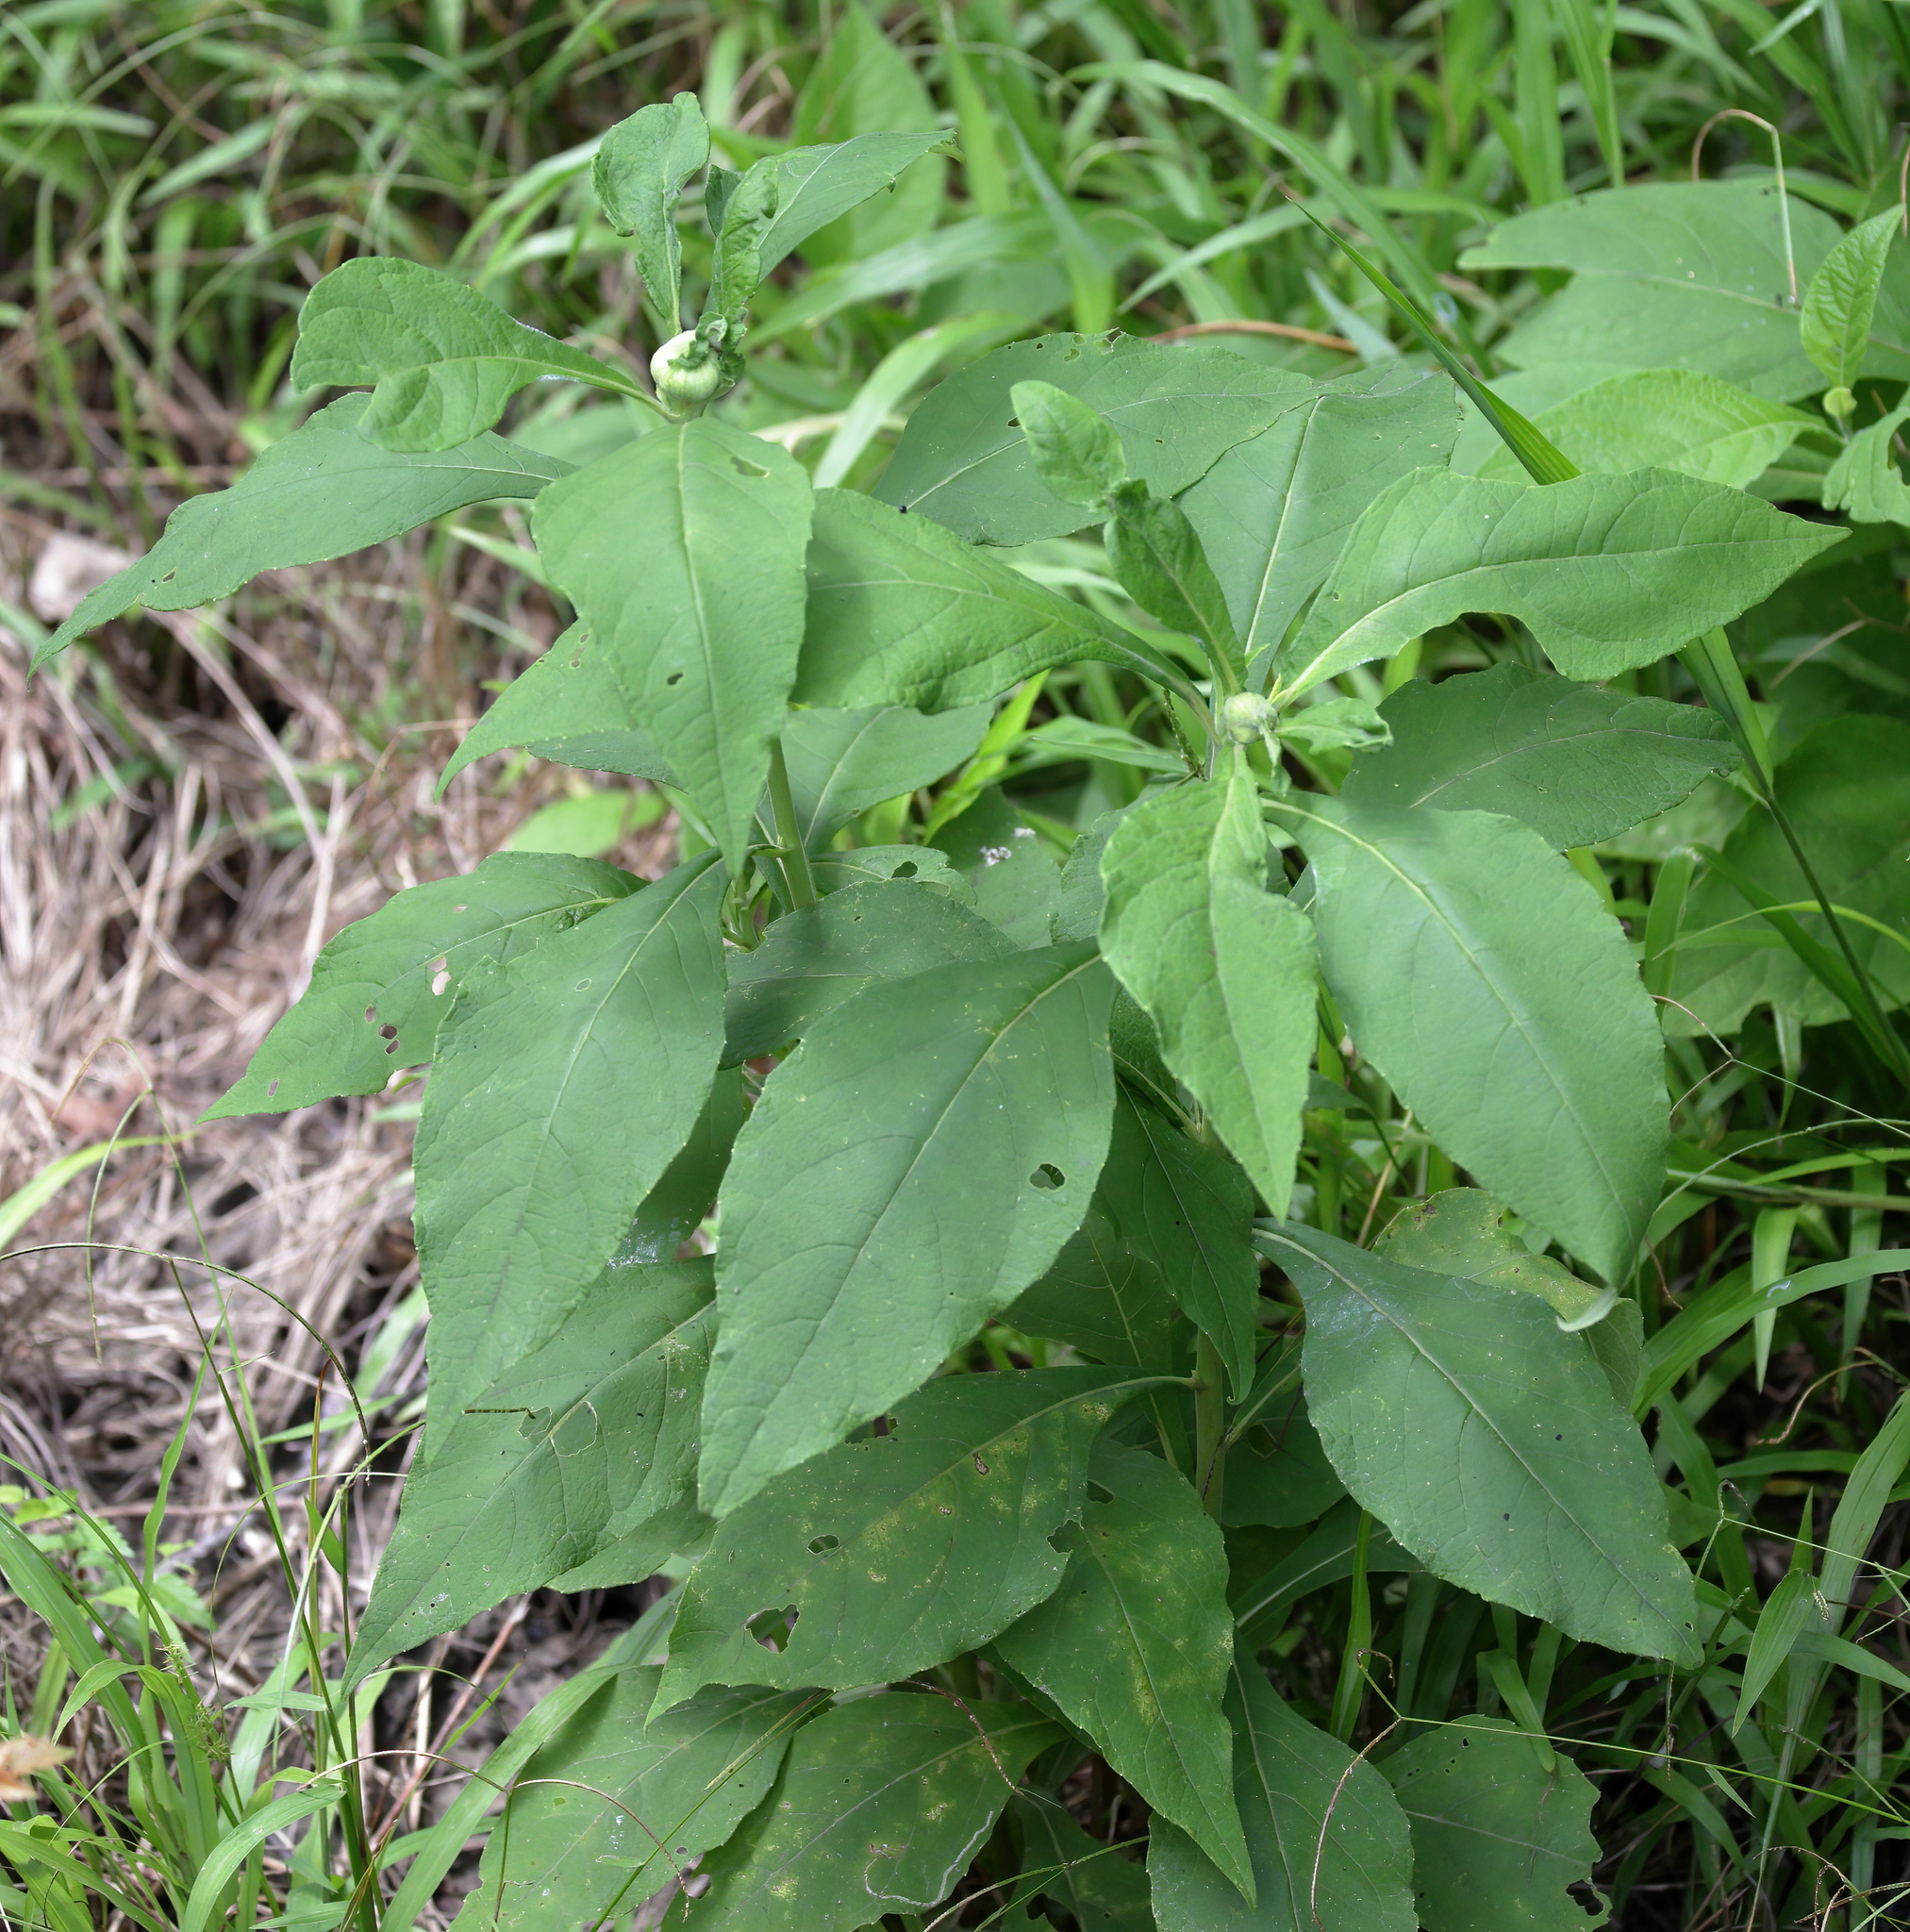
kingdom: Plantae
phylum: Tracheophyta
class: Magnoliopsida
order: Asterales
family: Asteraceae
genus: Verbesina
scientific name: Verbesina virginica
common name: Frostweed
